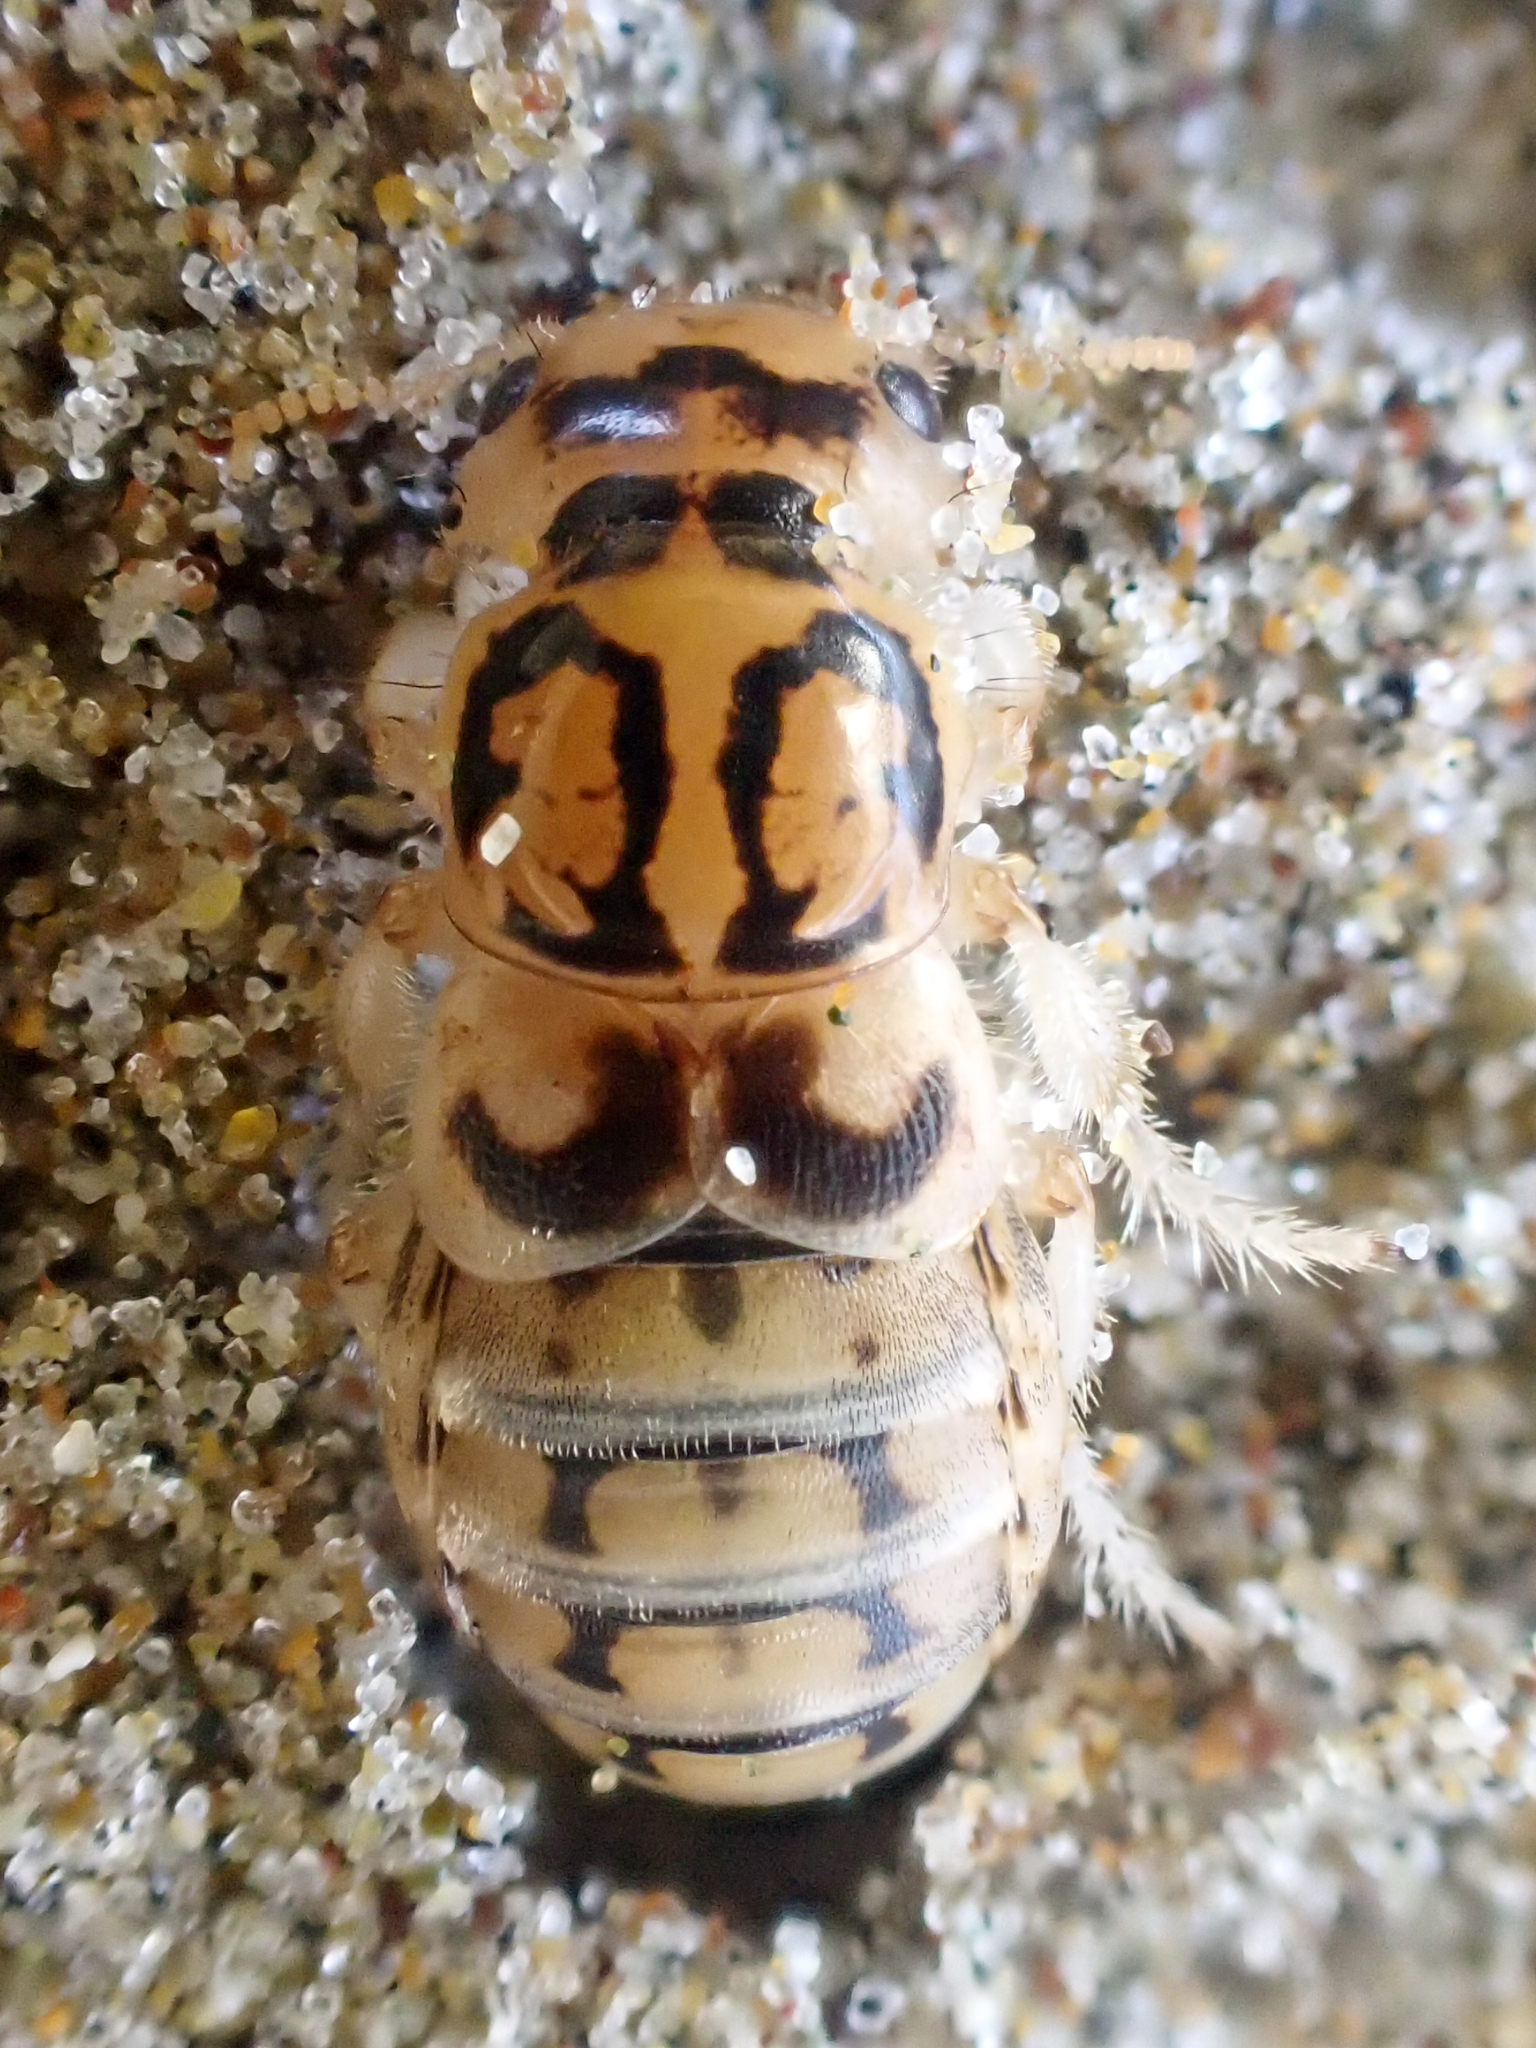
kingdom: Animalia
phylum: Arthropoda
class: Insecta
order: Coleoptera
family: Staphylinidae
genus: Thinopinus
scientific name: Thinopinus pictus
